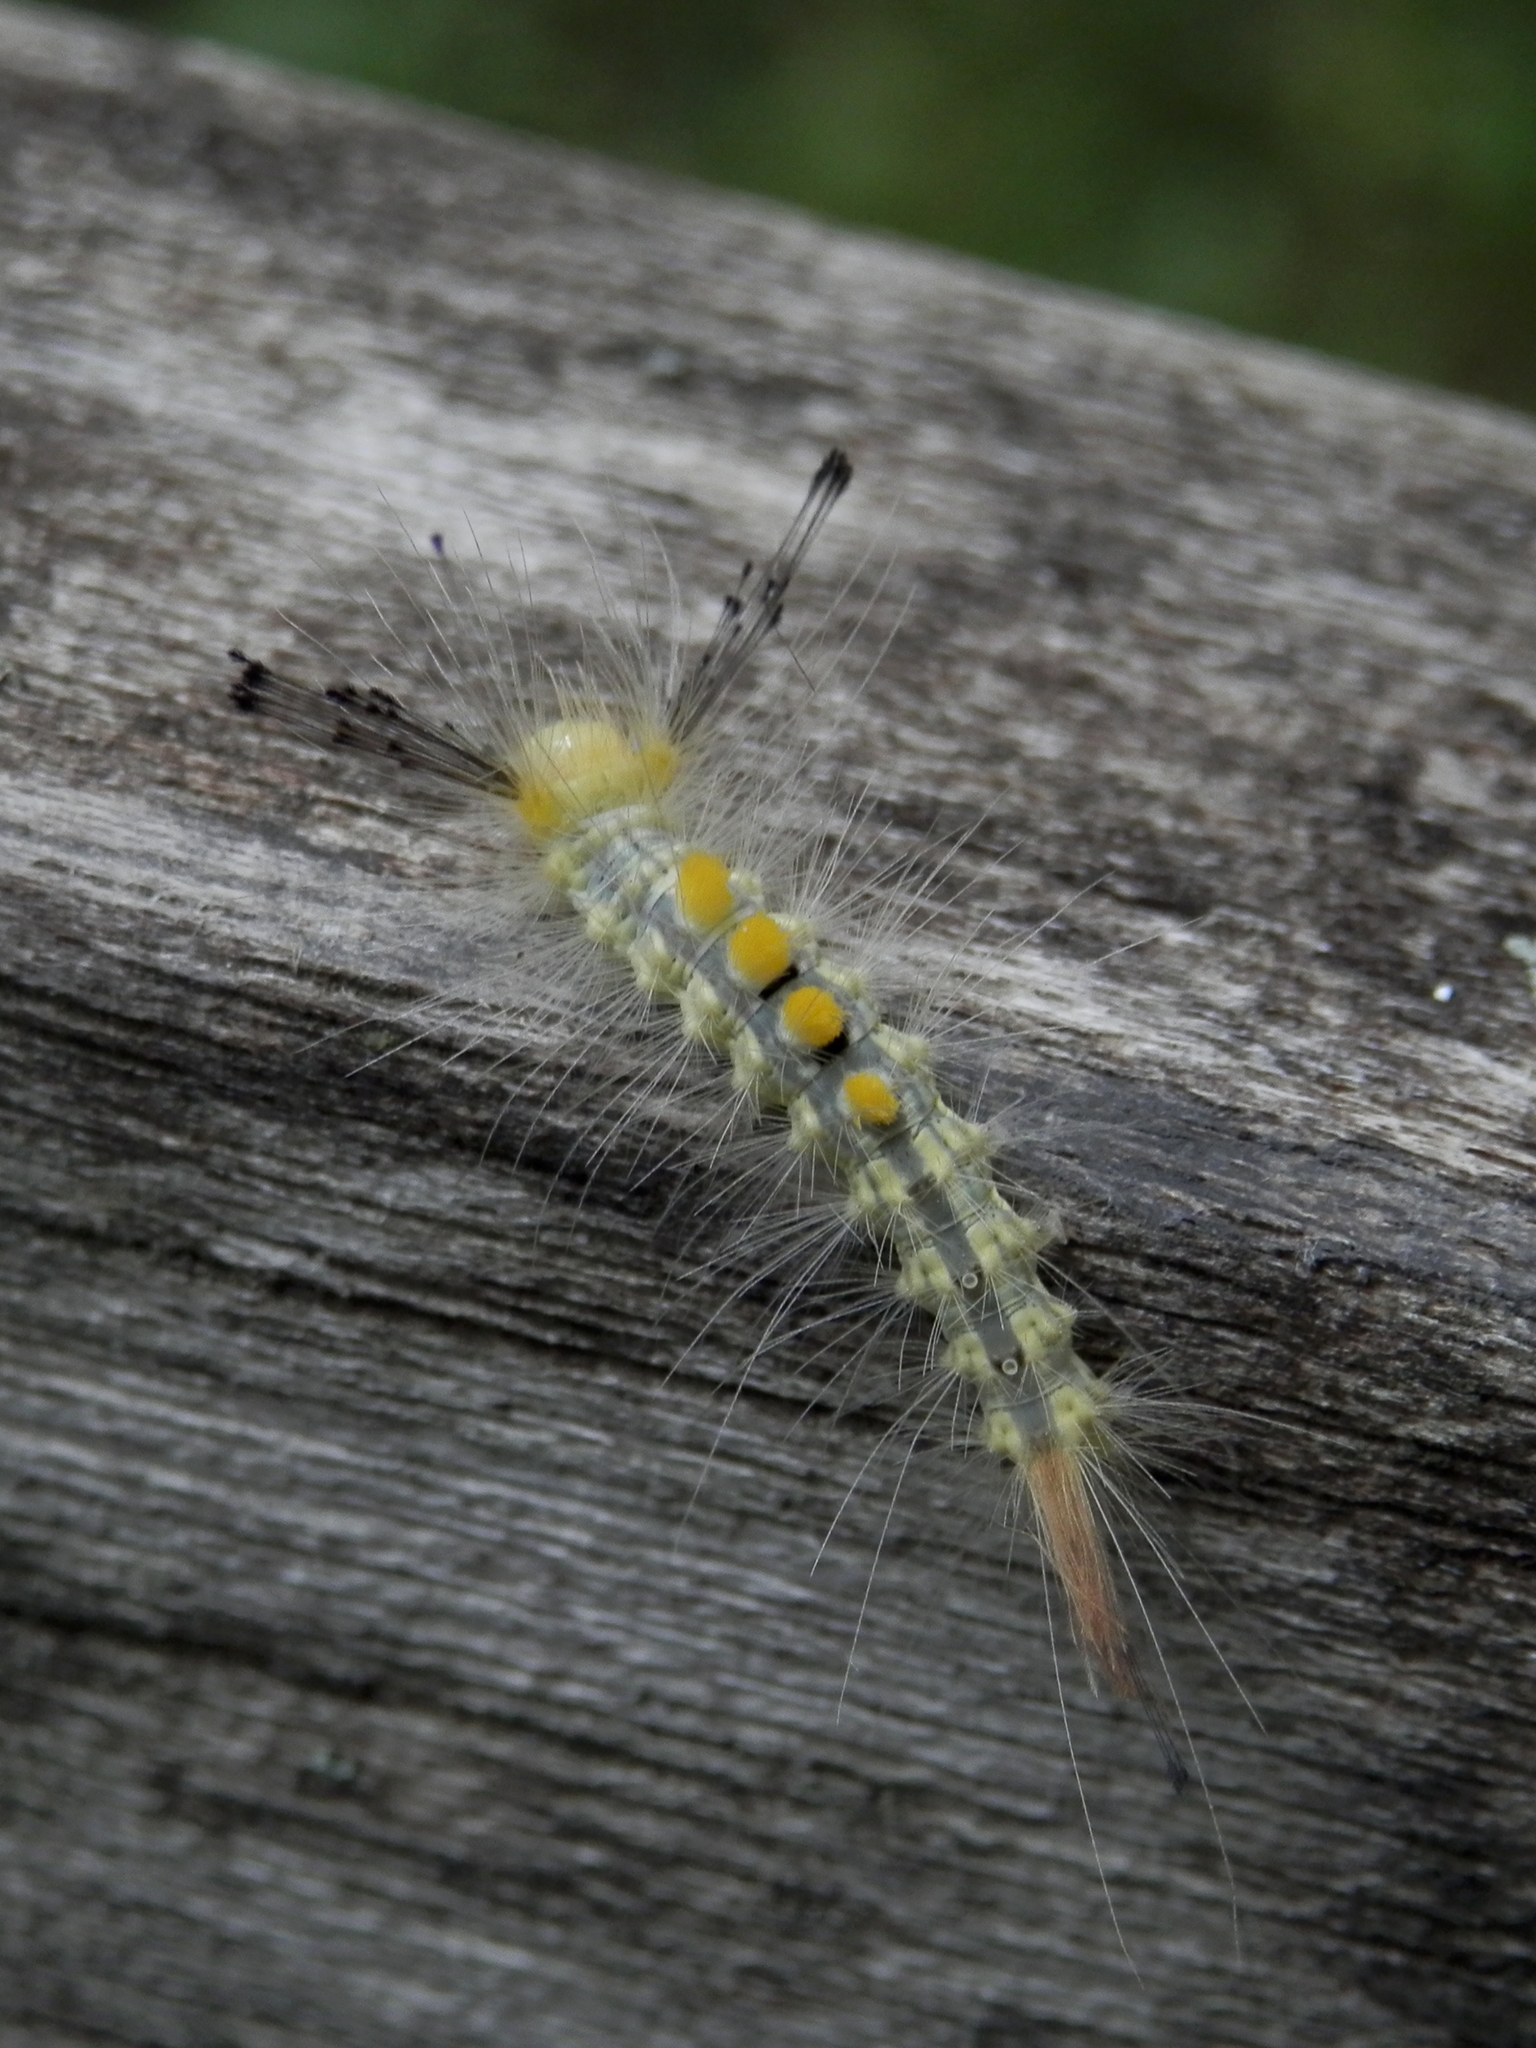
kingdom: Animalia
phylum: Arthropoda
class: Insecta
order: Lepidoptera
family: Erebidae
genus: Orgyia
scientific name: Orgyia definita
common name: Definite tussock moth
